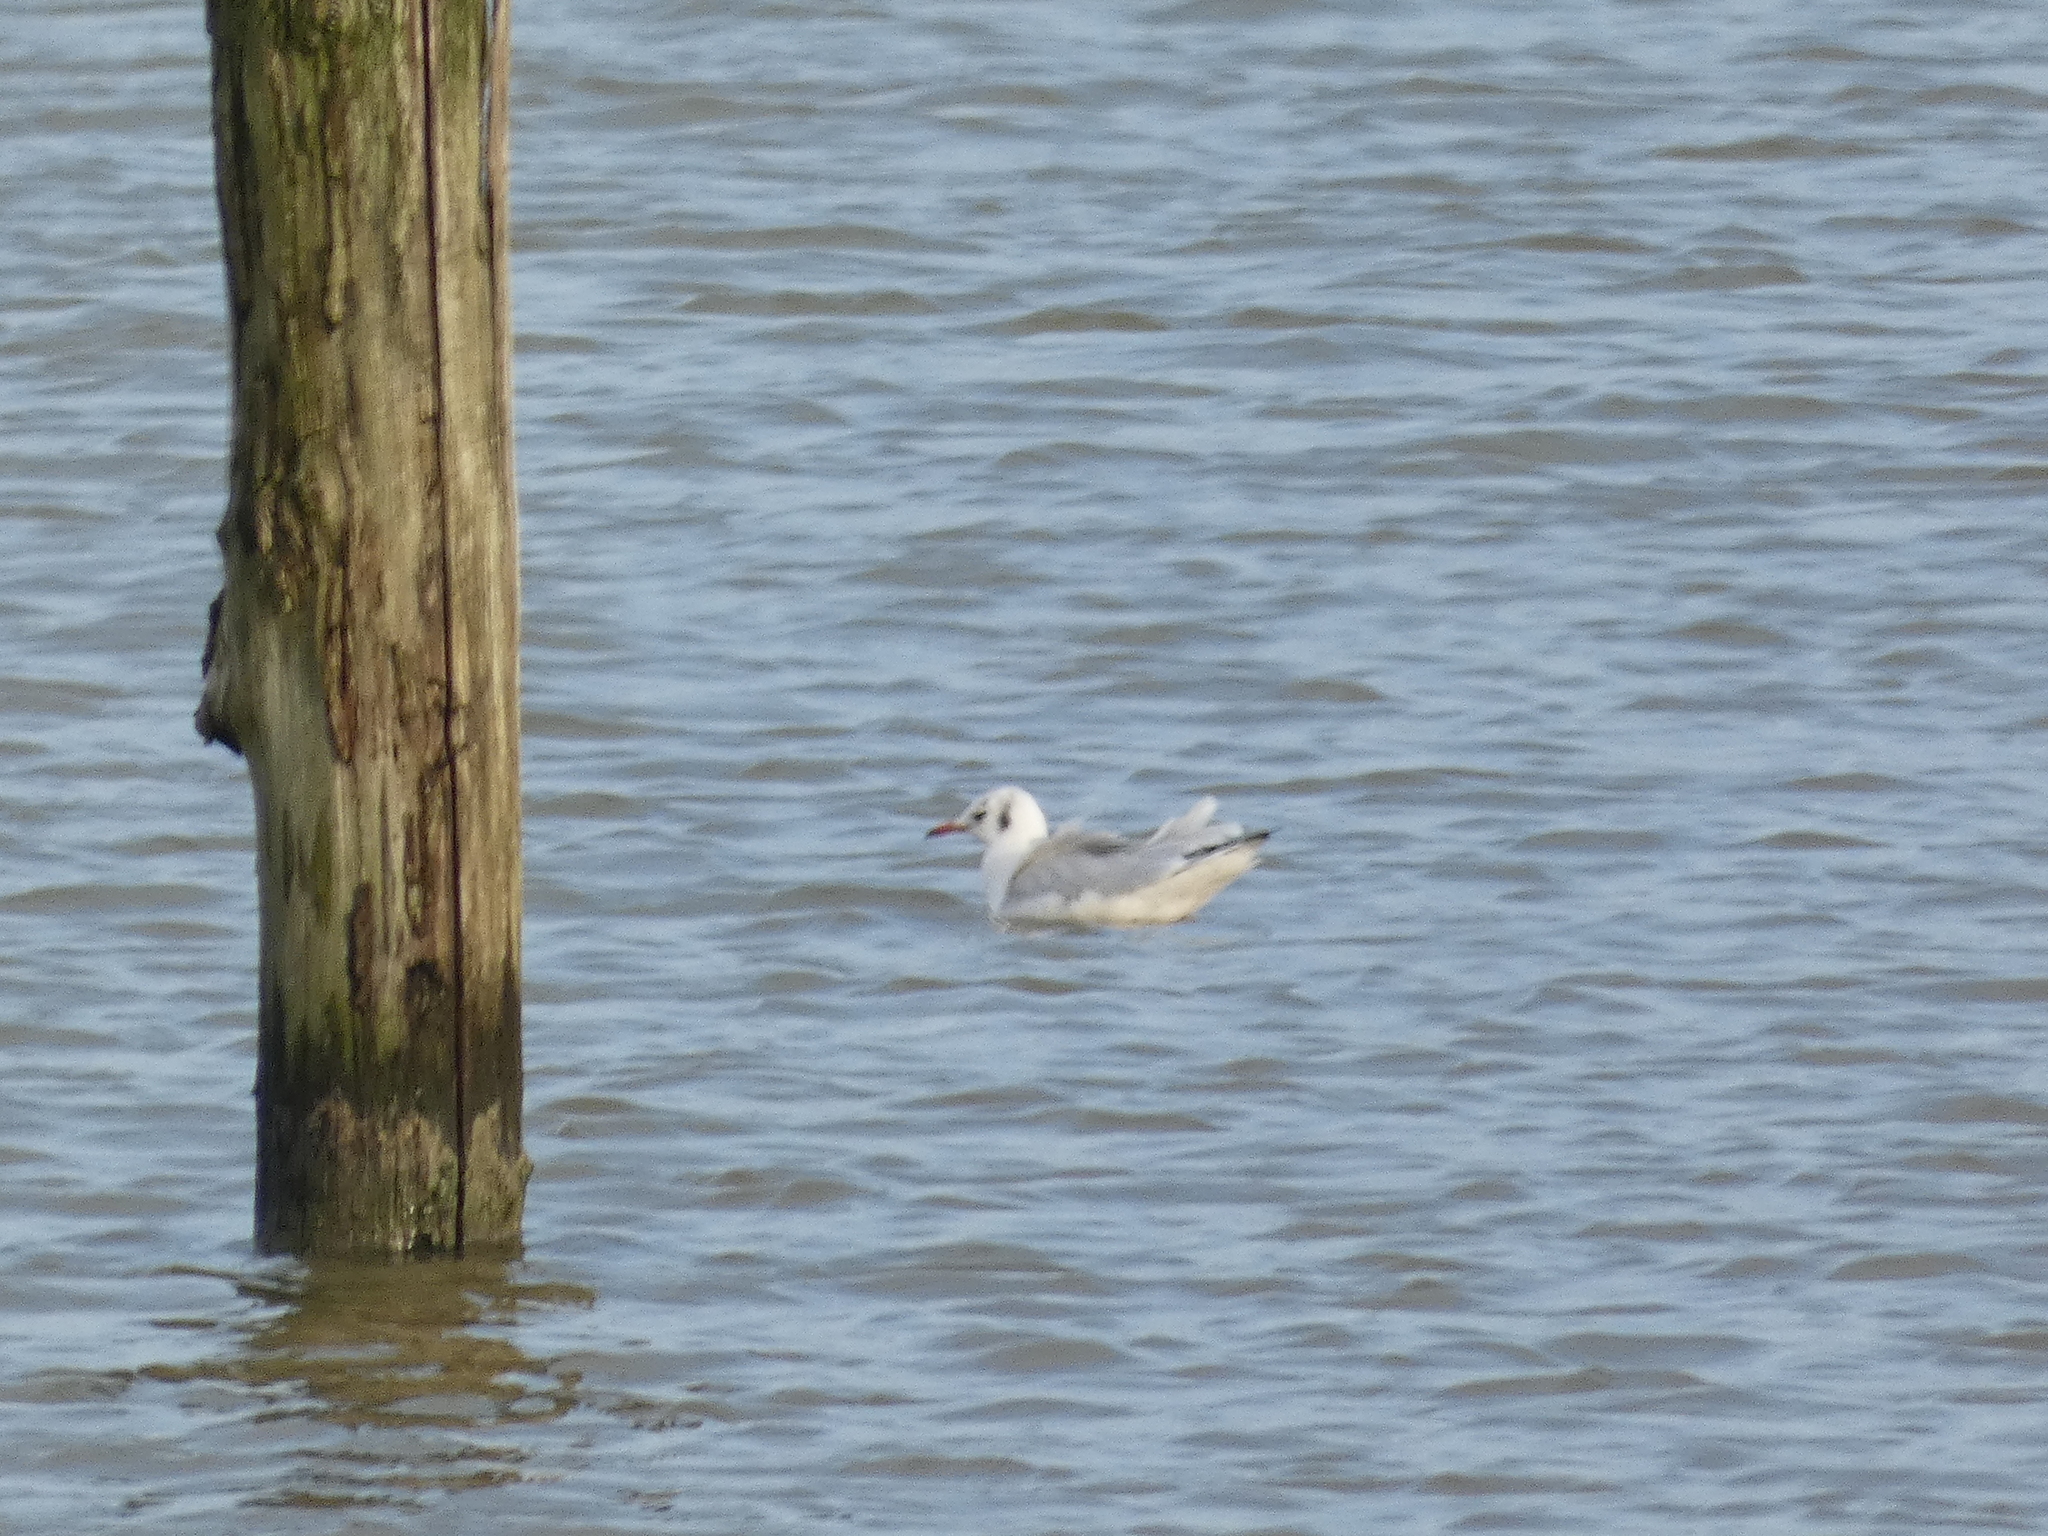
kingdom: Animalia
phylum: Chordata
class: Aves
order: Charadriiformes
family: Laridae
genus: Chroicocephalus
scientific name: Chroicocephalus ridibundus
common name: Black-headed gull
